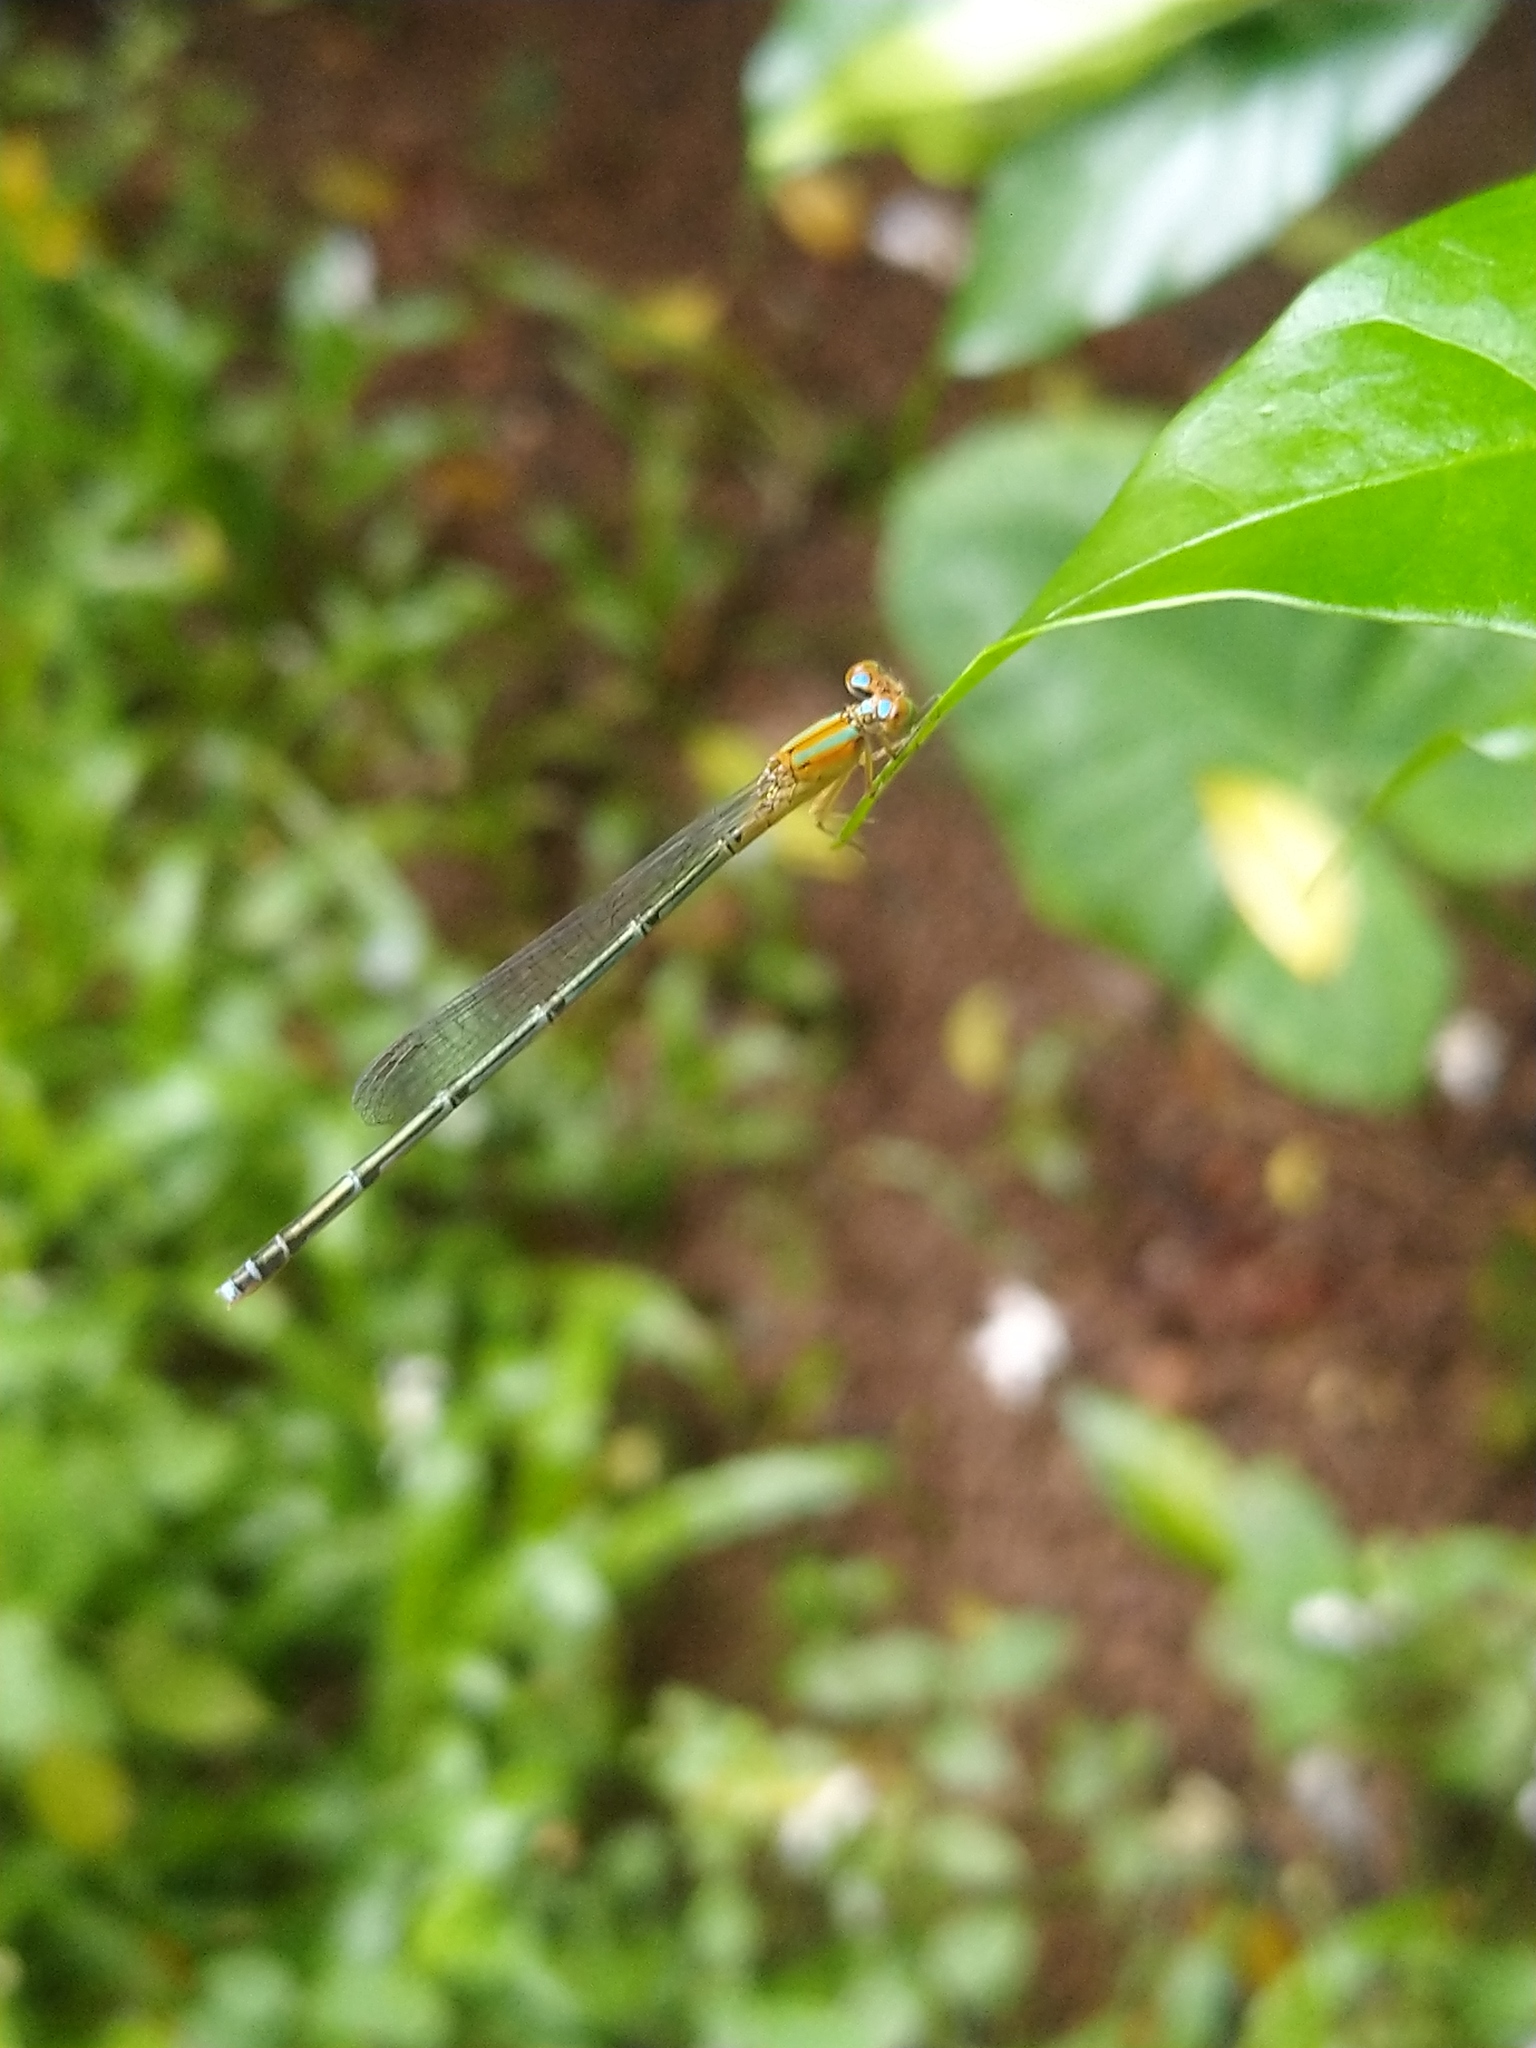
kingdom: Animalia
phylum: Arthropoda
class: Insecta
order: Odonata
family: Coenagrionidae
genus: Pseudagrion
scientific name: Pseudagrion microcephalum
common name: Blue riverdamsel
